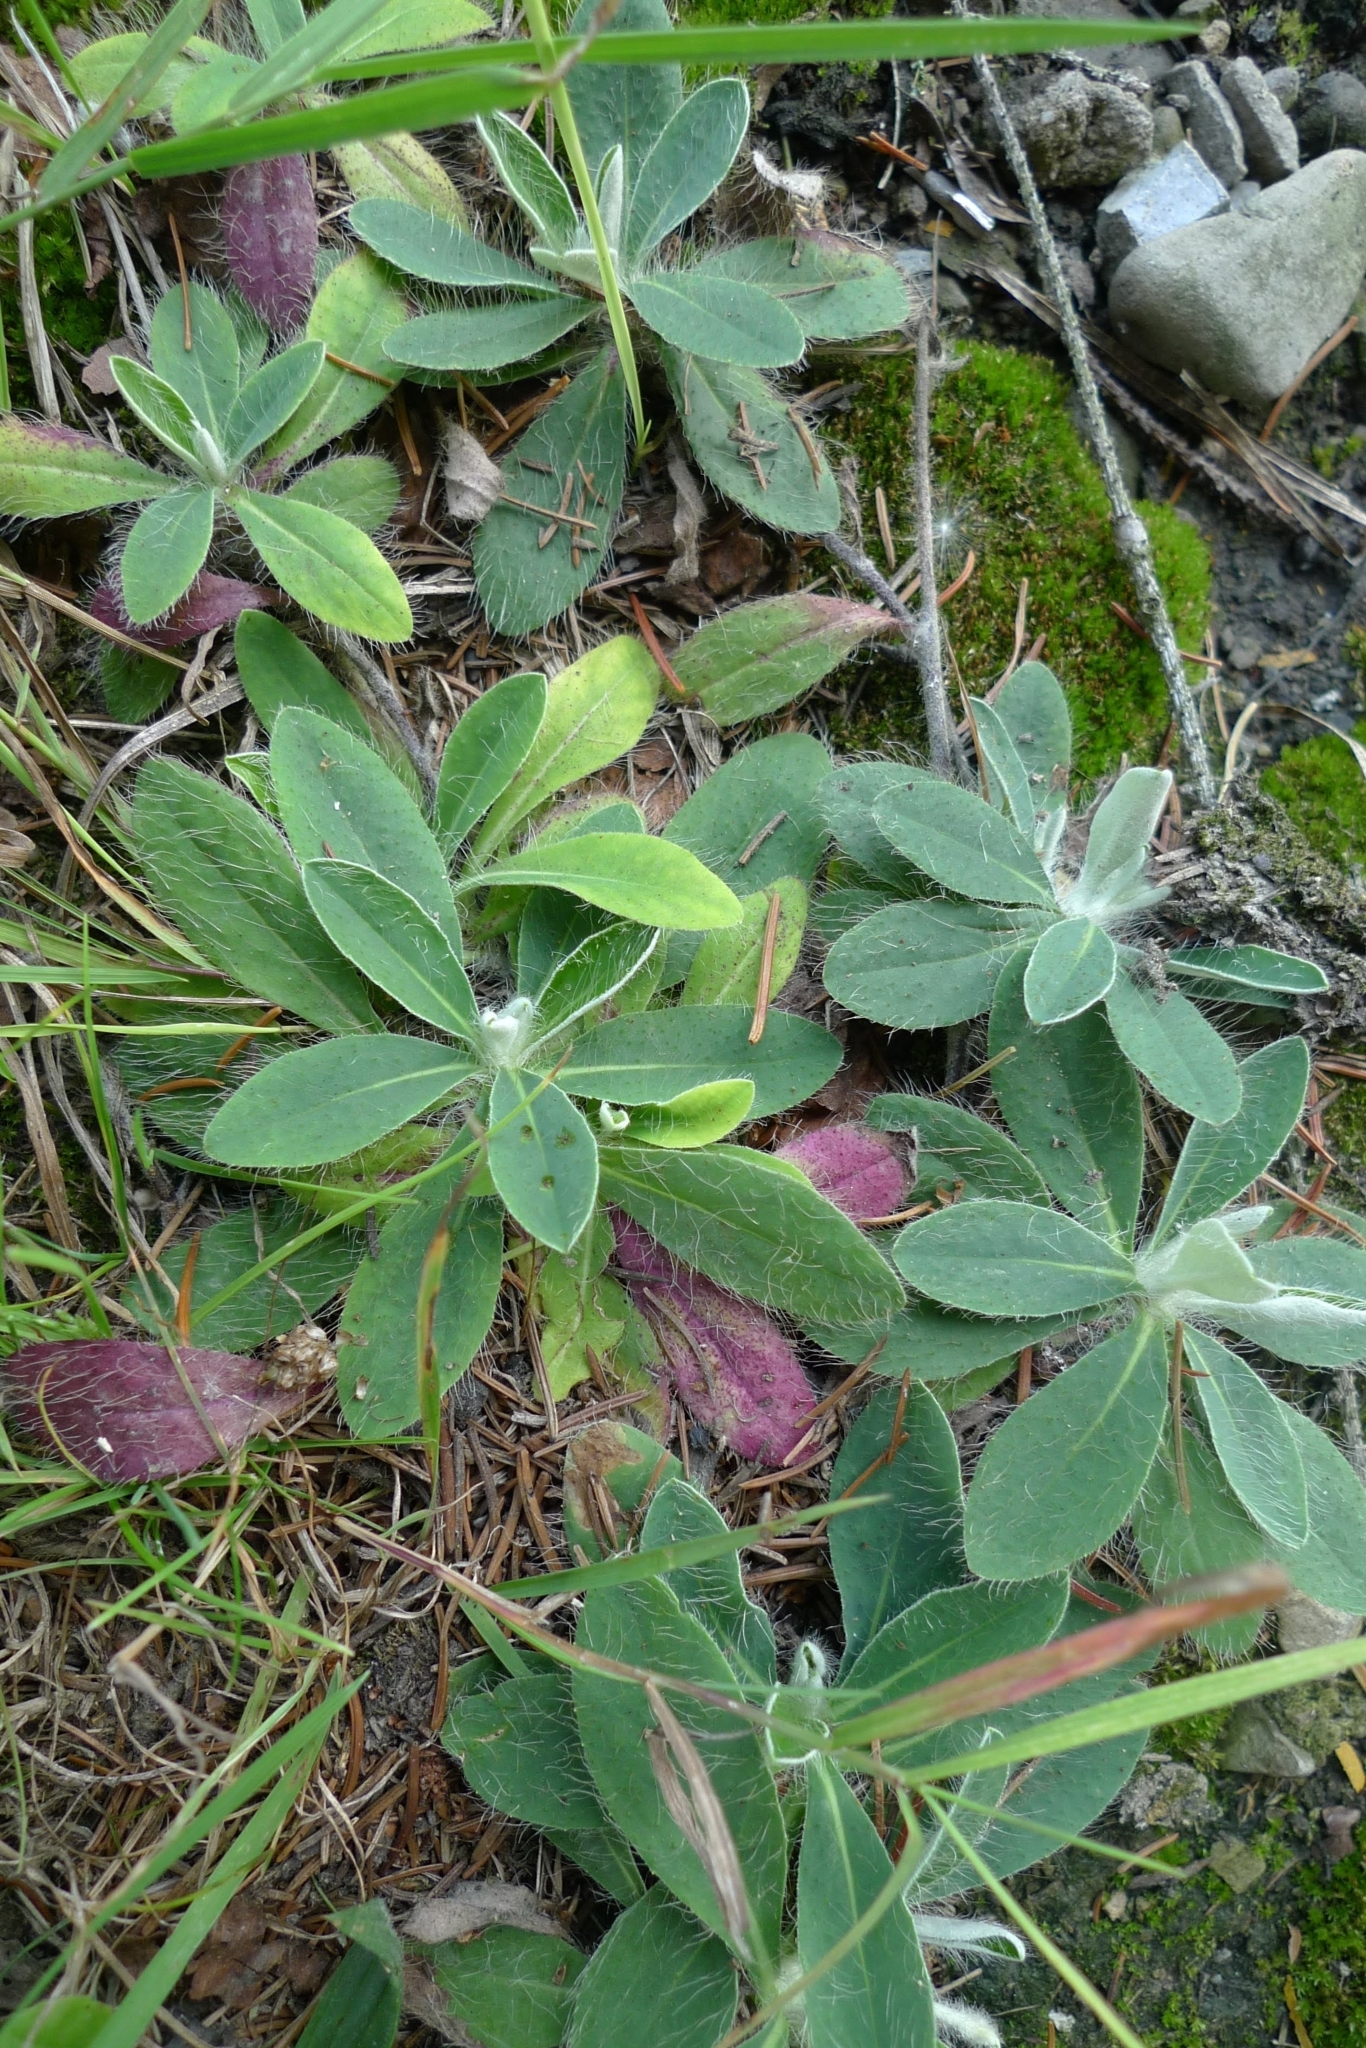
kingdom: Plantae
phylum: Tracheophyta
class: Magnoliopsida
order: Asterales
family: Asteraceae
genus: Pilosella
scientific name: Pilosella officinarum
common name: Mouse-ear hawkweed
